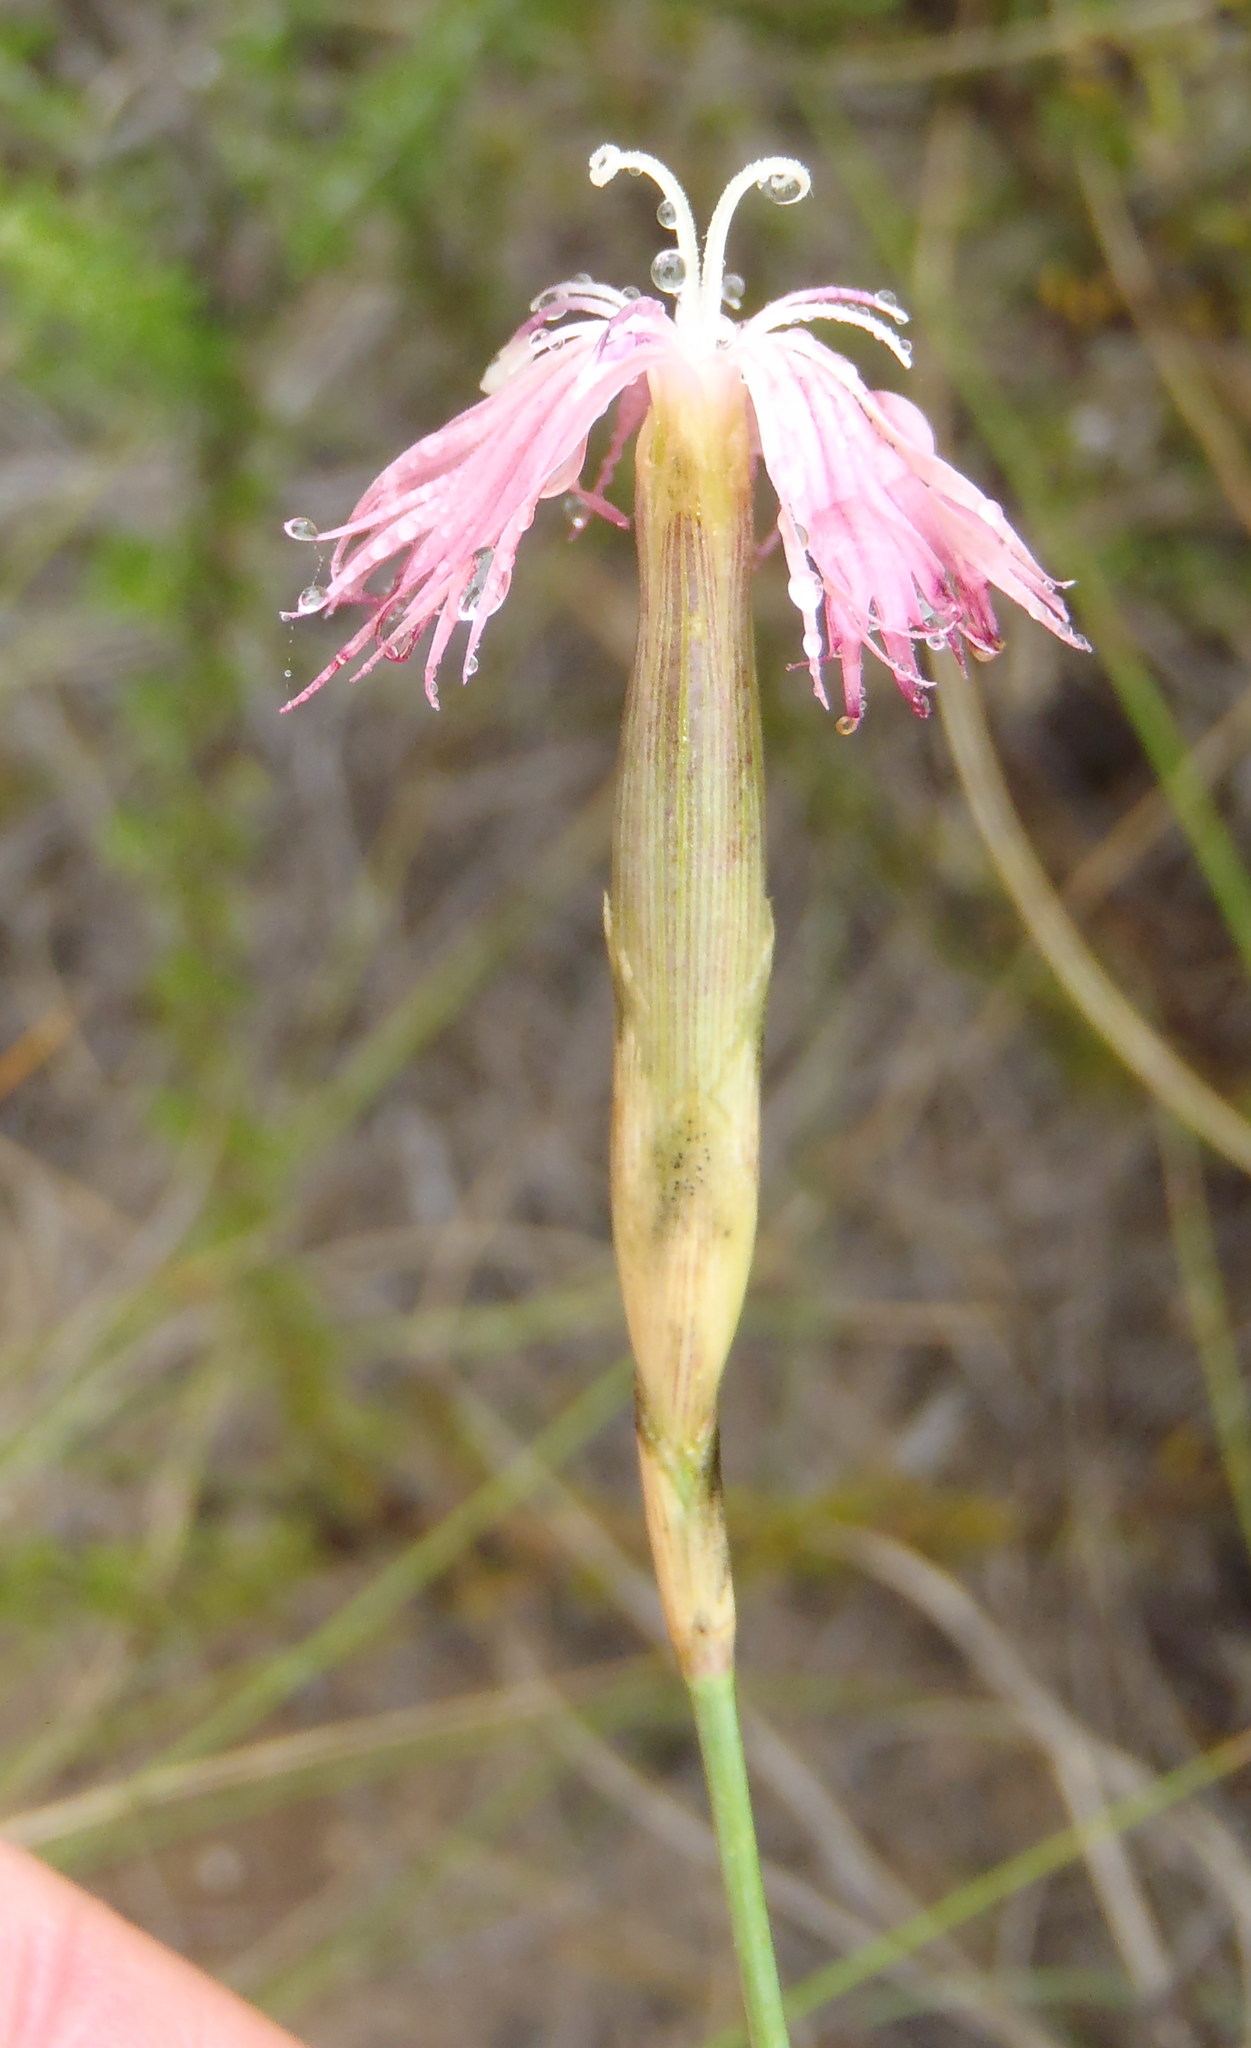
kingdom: Plantae
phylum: Tracheophyta
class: Magnoliopsida
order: Caryophyllales
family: Caryophyllaceae
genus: Dianthus
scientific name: Dianthus bolusii
